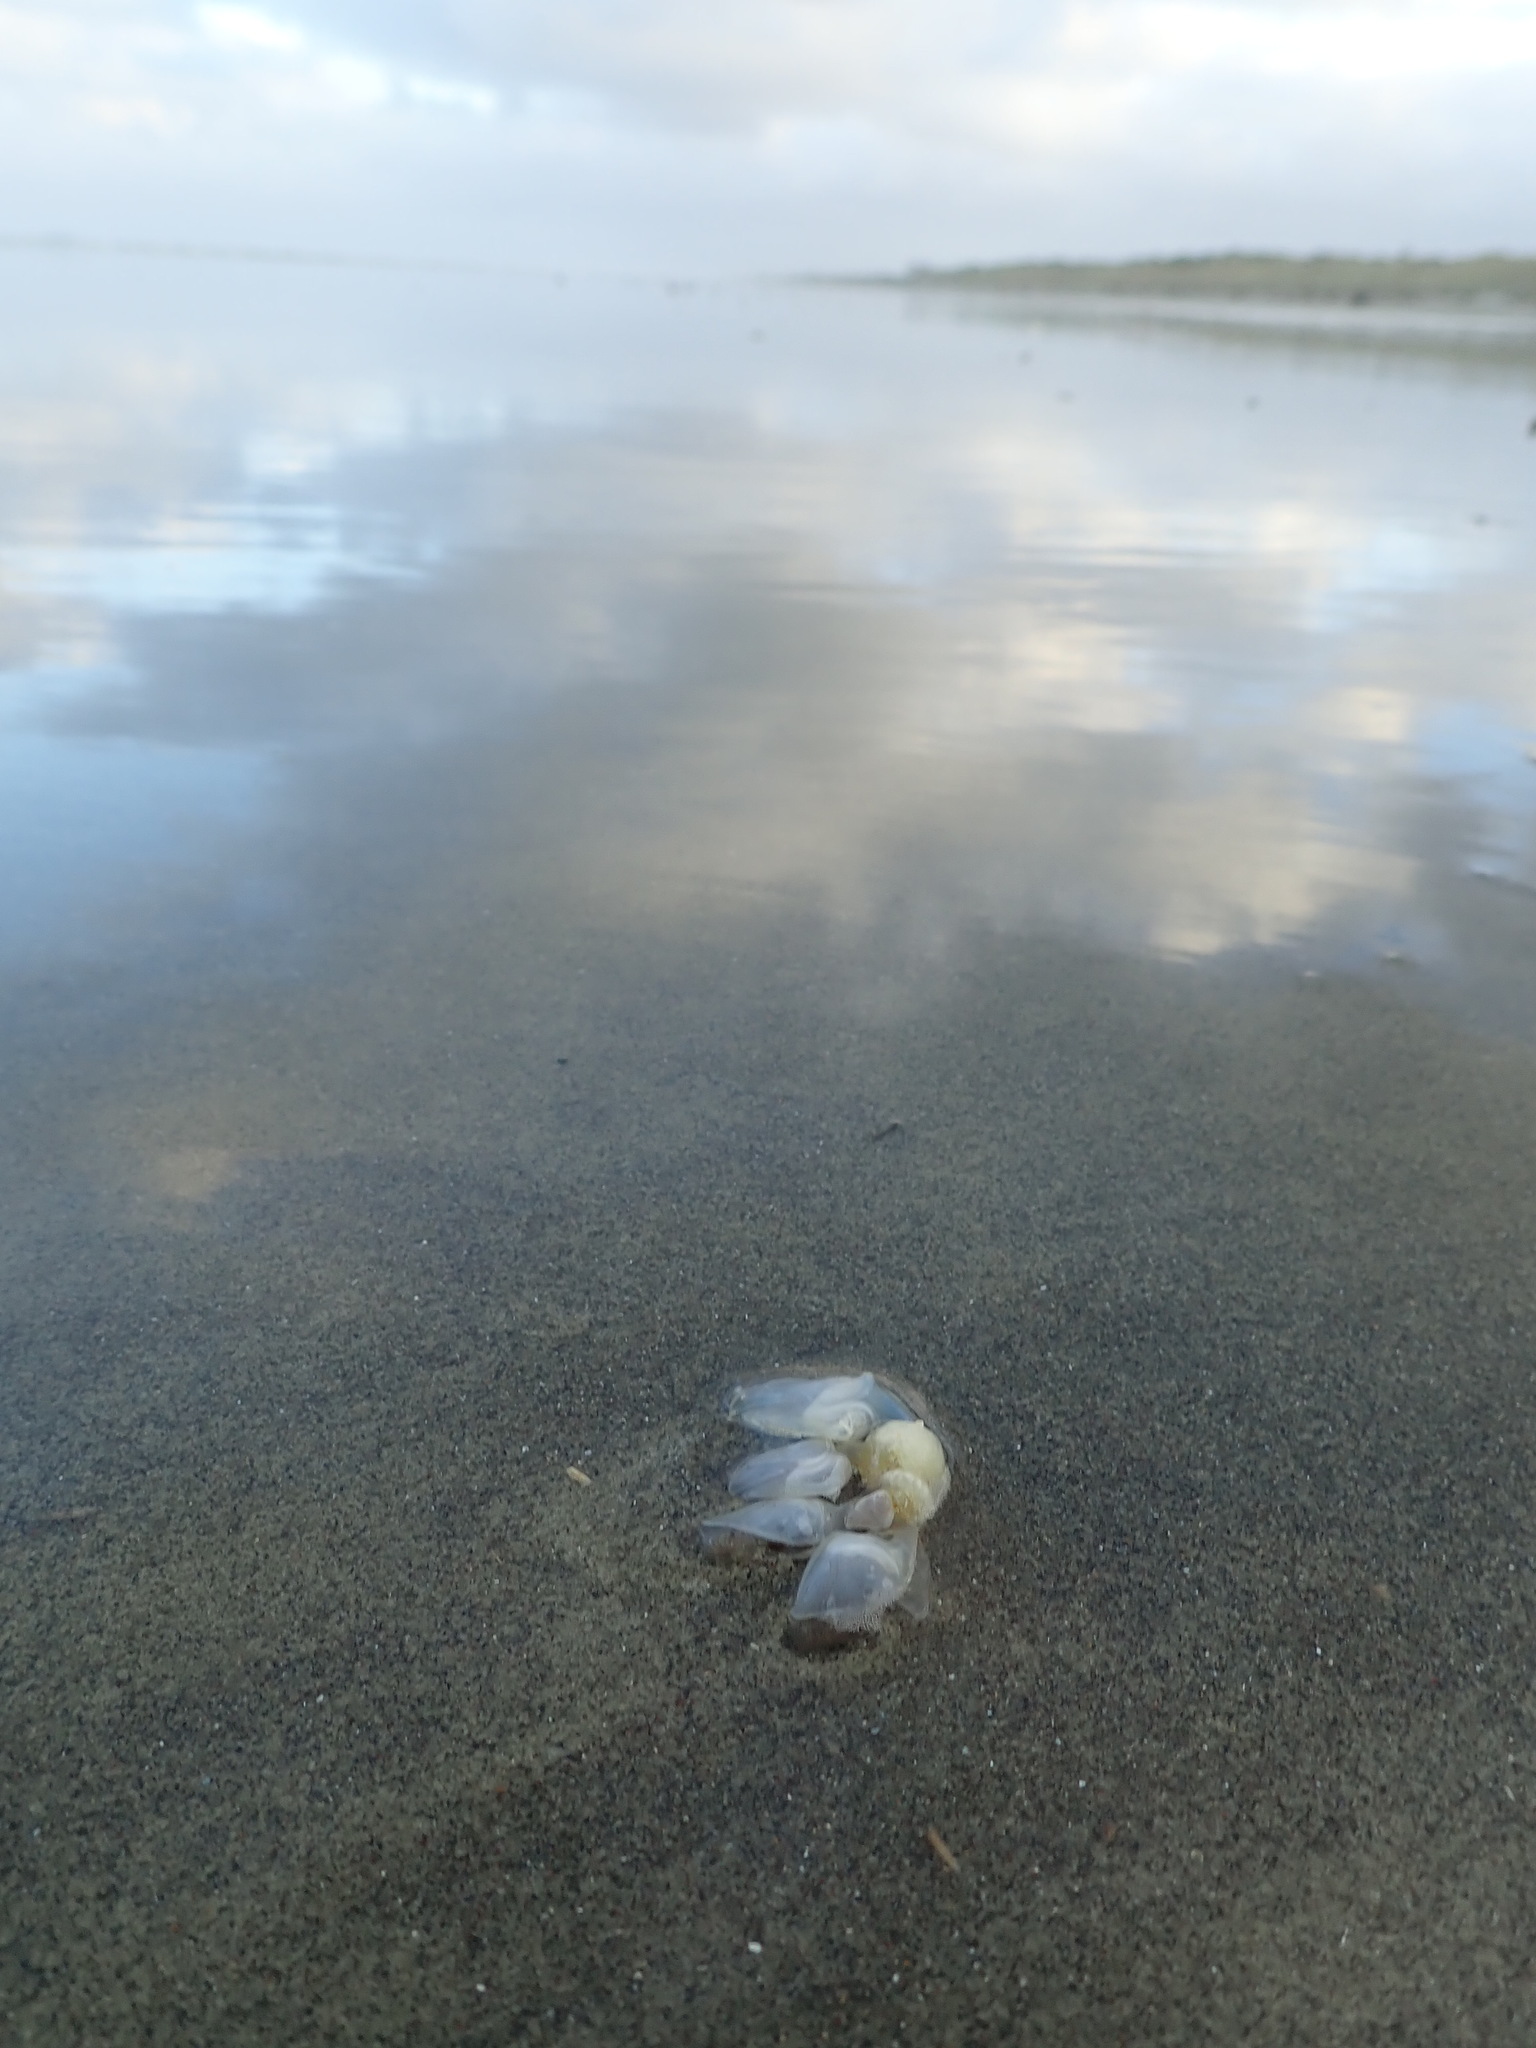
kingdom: Animalia
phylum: Arthropoda
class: Maxillopoda
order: Pedunculata
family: Lepadidae
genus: Dosima
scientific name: Dosima fascicularis
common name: Buoy barnacle
